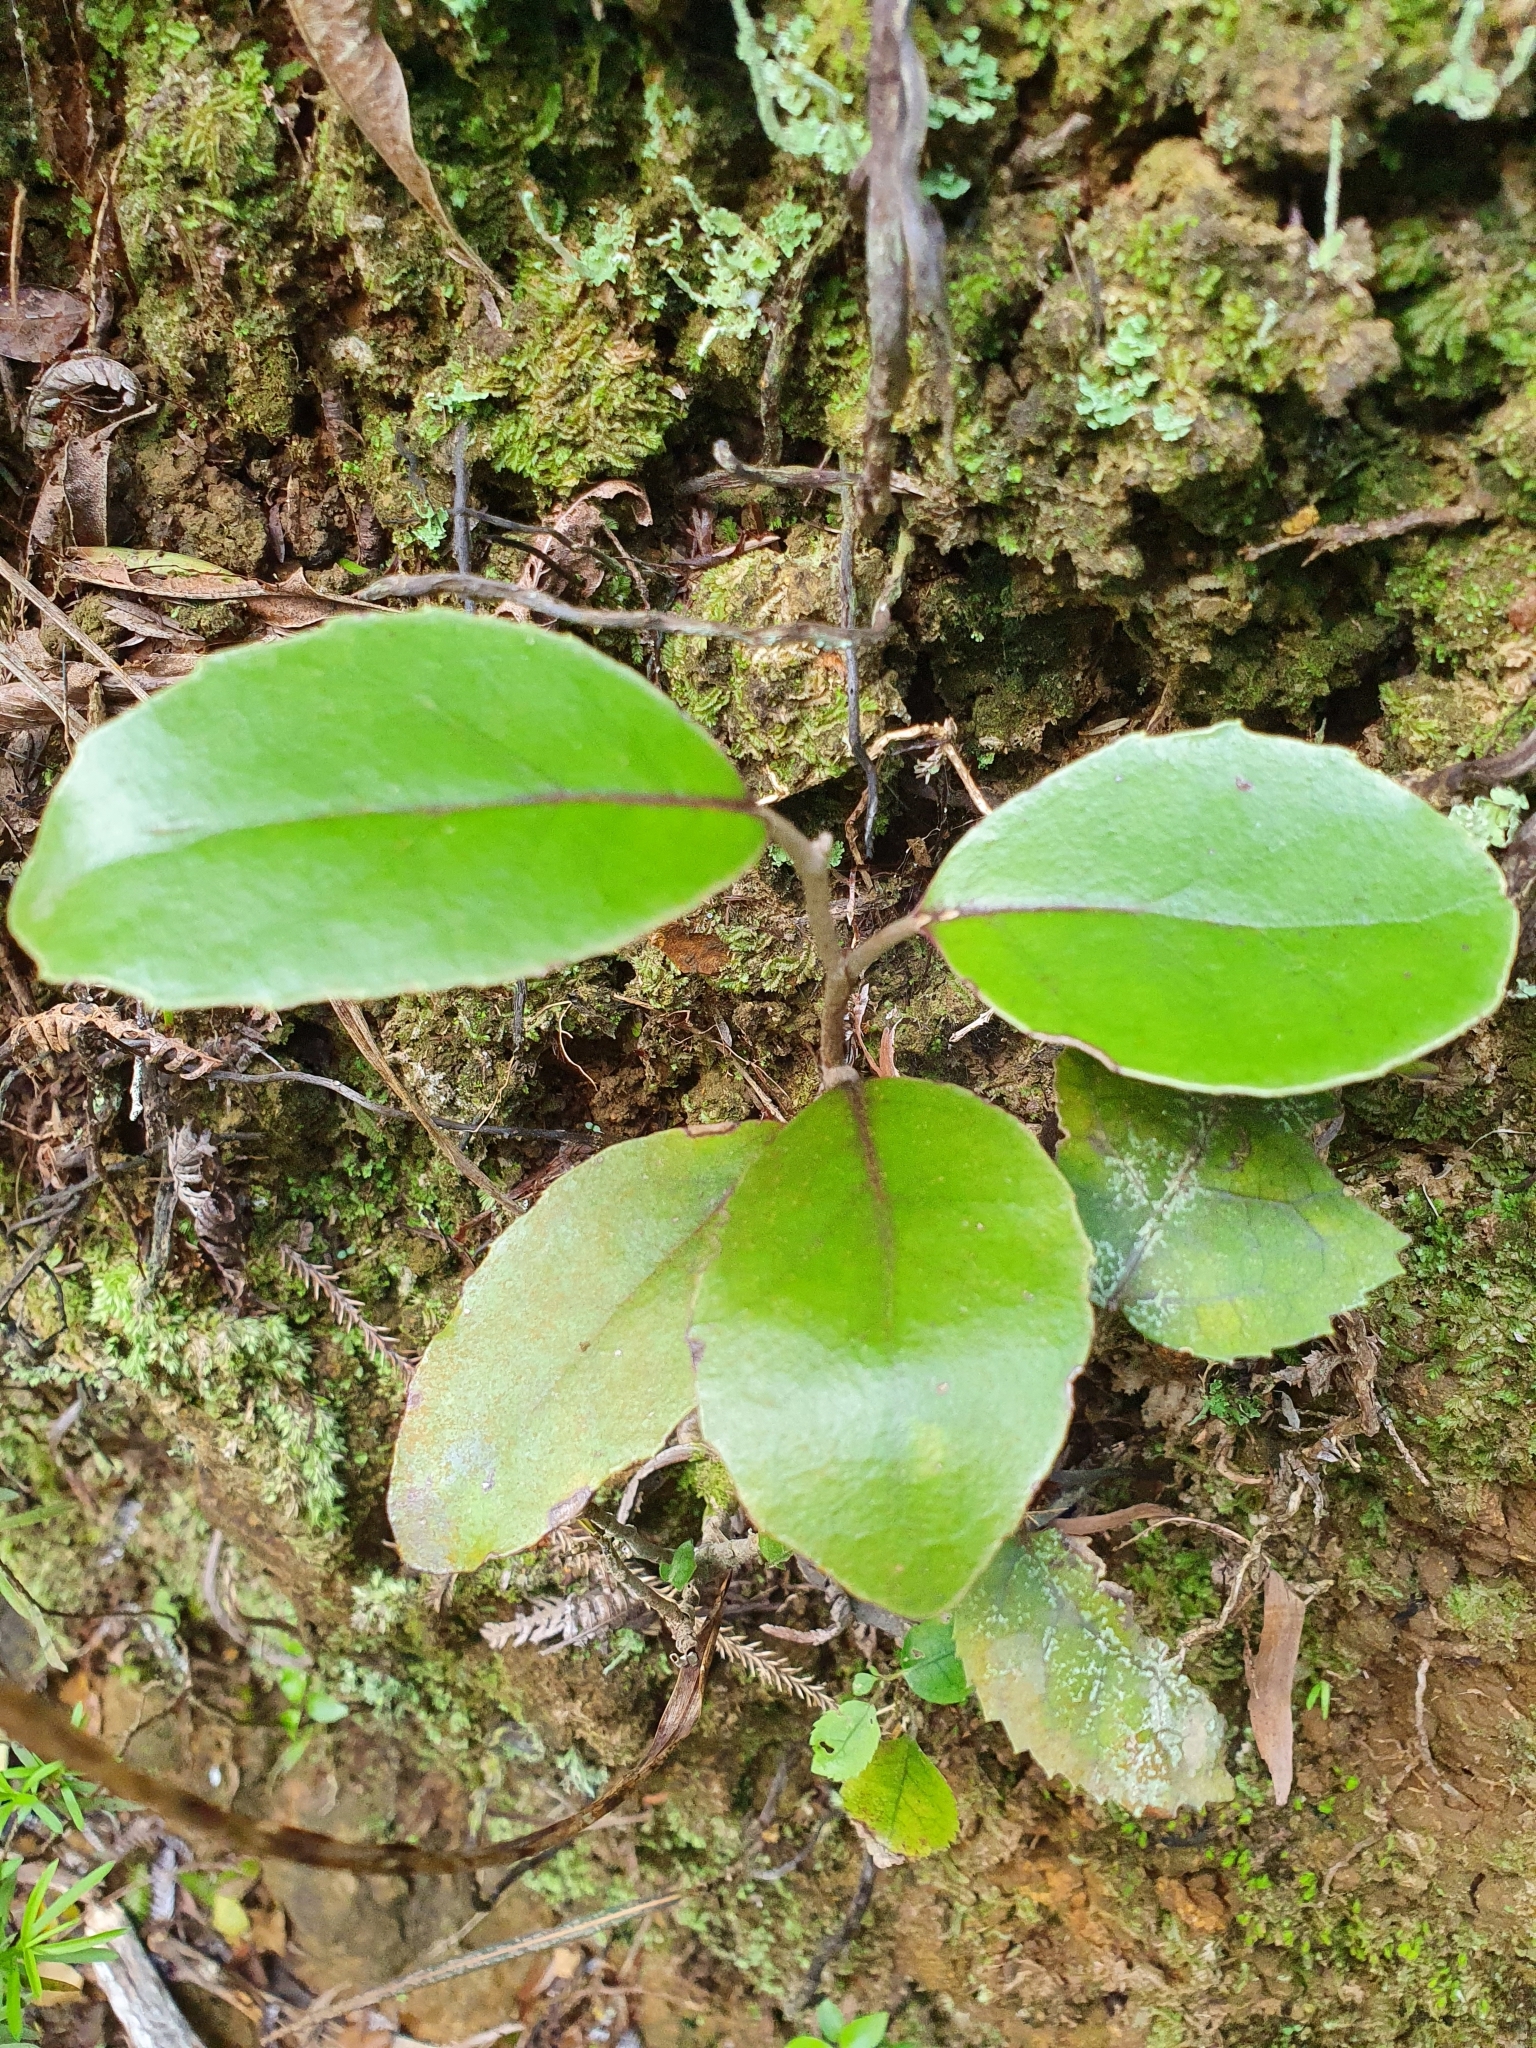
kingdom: Plantae
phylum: Tracheophyta
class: Magnoliopsida
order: Asterales
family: Asteraceae
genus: Olearia
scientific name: Olearia furfuracea
